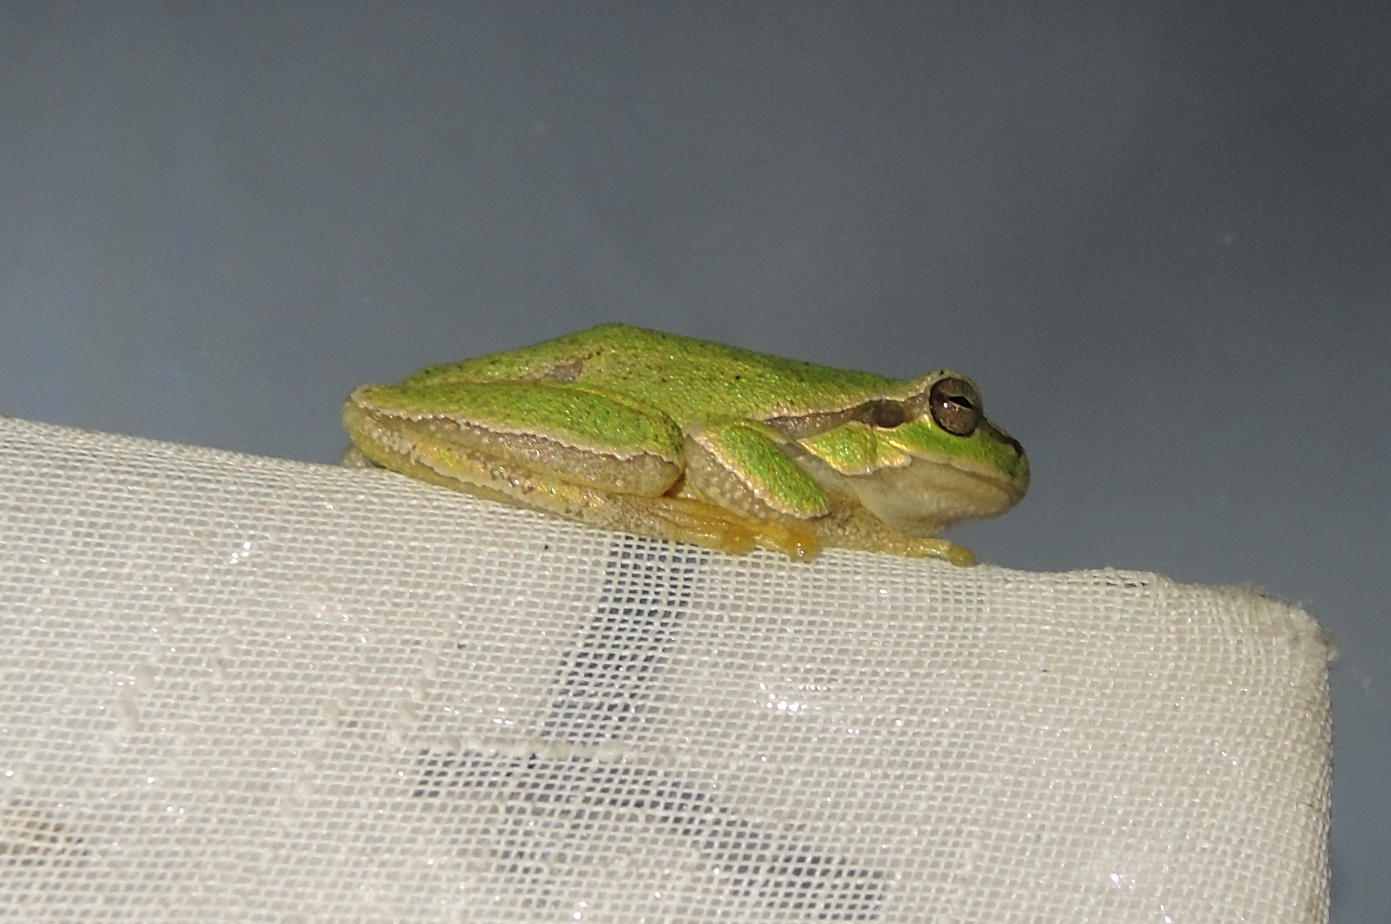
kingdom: Animalia
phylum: Chordata
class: Amphibia
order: Anura
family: Hylidae
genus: Hyla
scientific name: Hyla orientalis
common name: Caucasian treefrog
